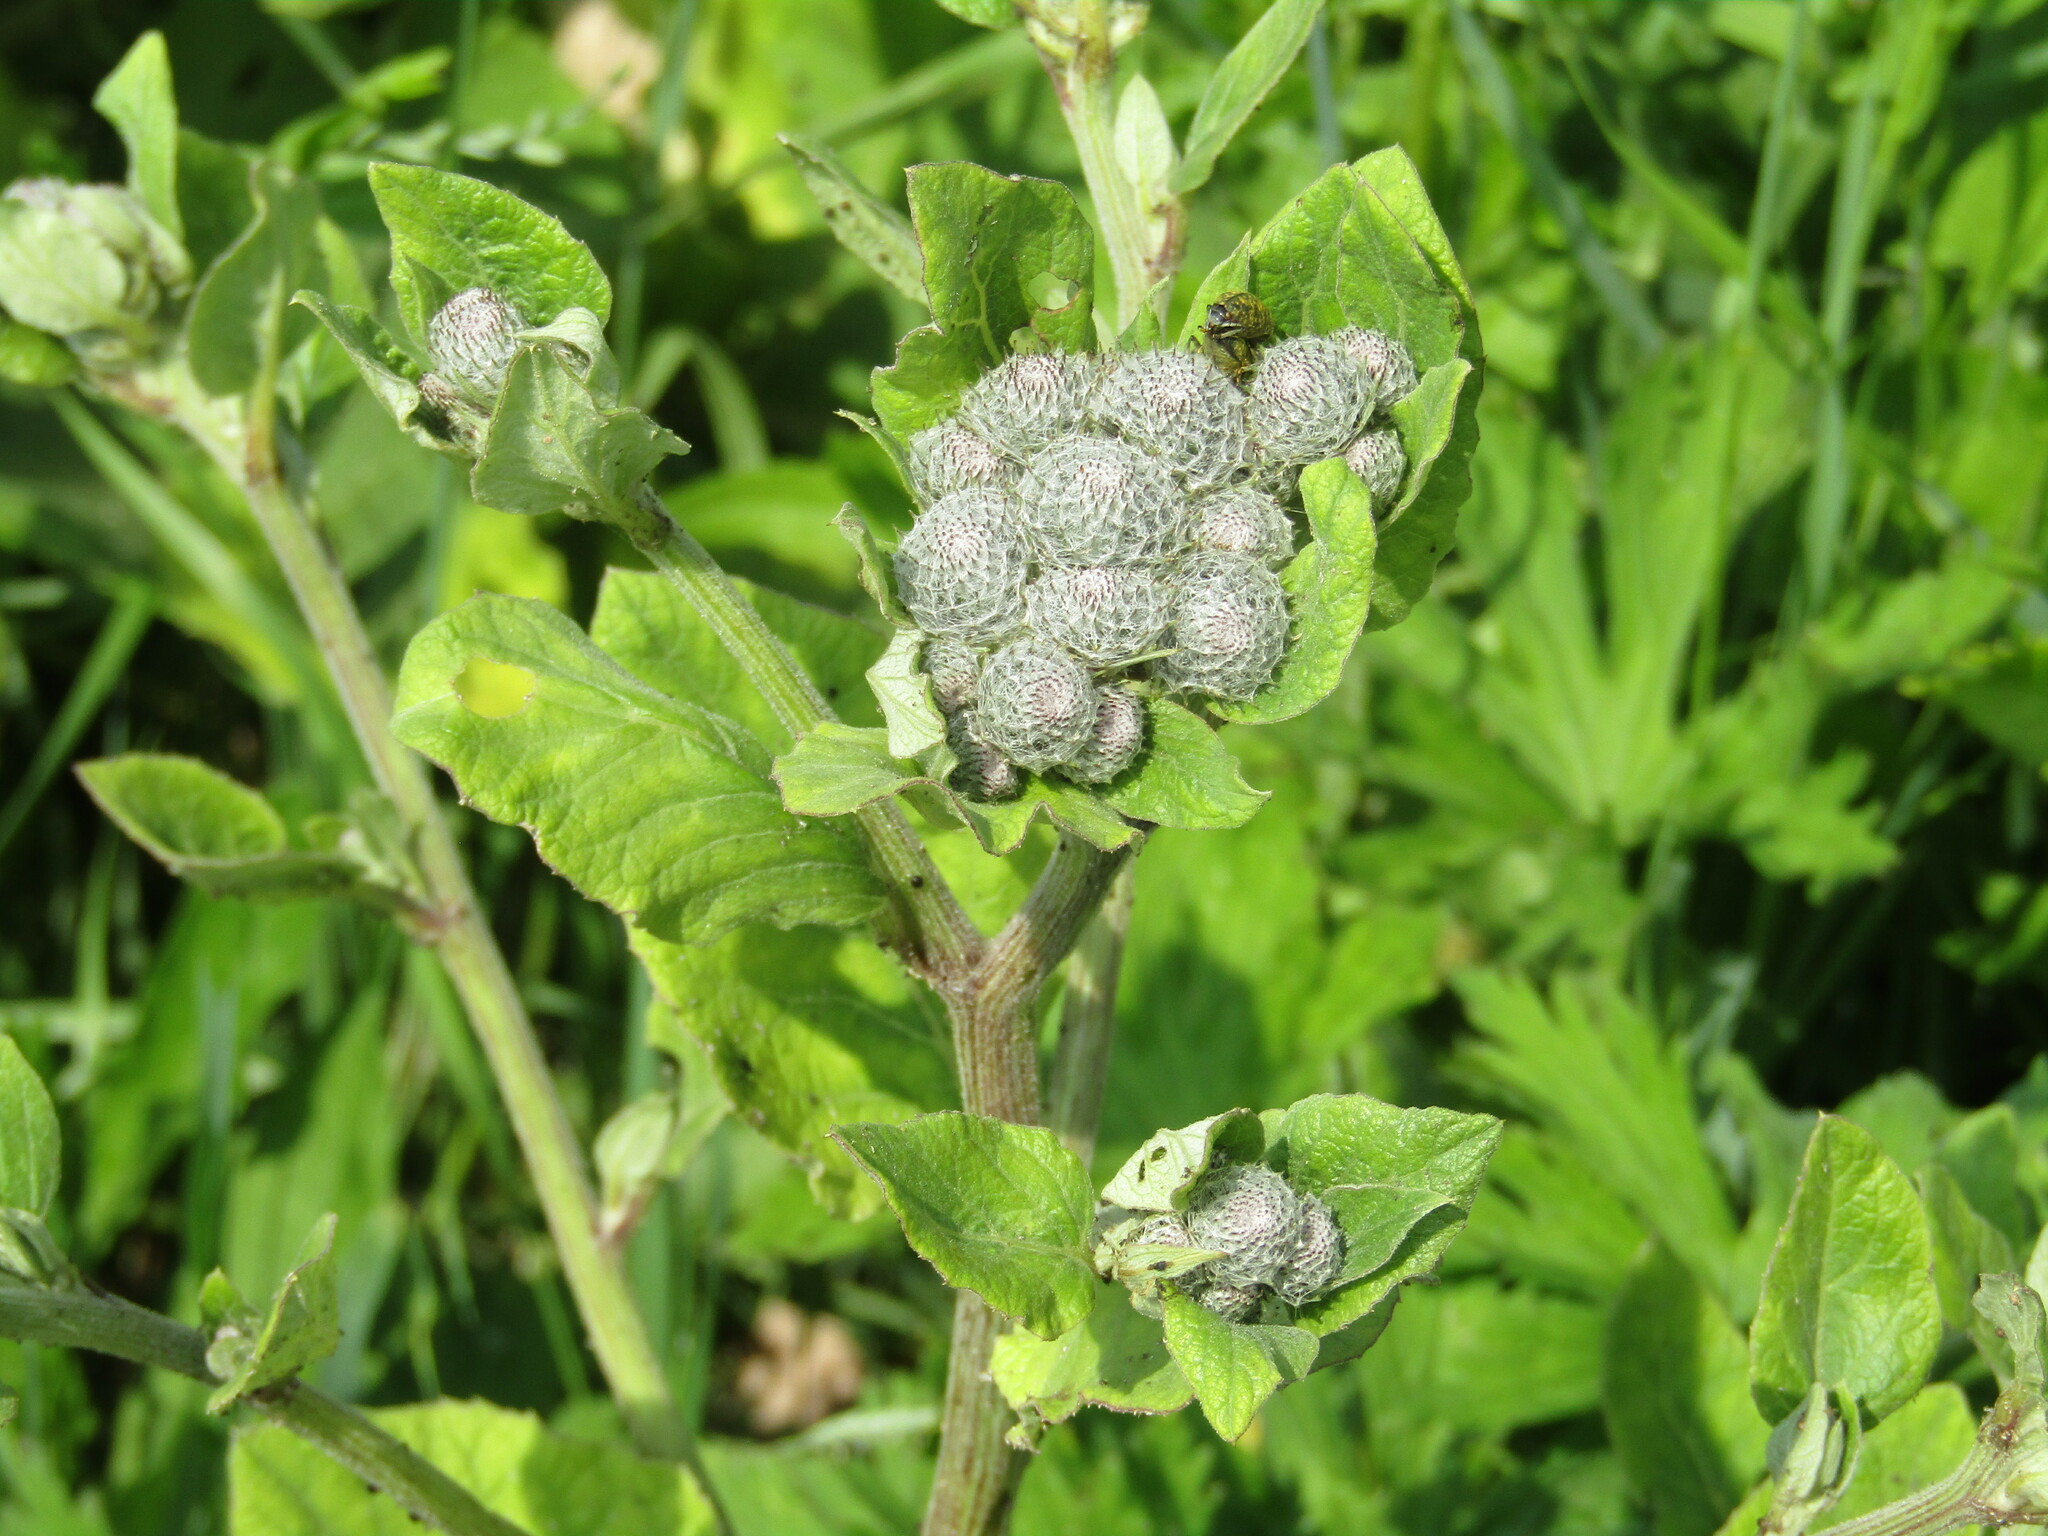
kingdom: Plantae
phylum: Tracheophyta
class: Magnoliopsida
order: Asterales
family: Asteraceae
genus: Arctium
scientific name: Arctium tomentosum
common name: Woolly burdock
